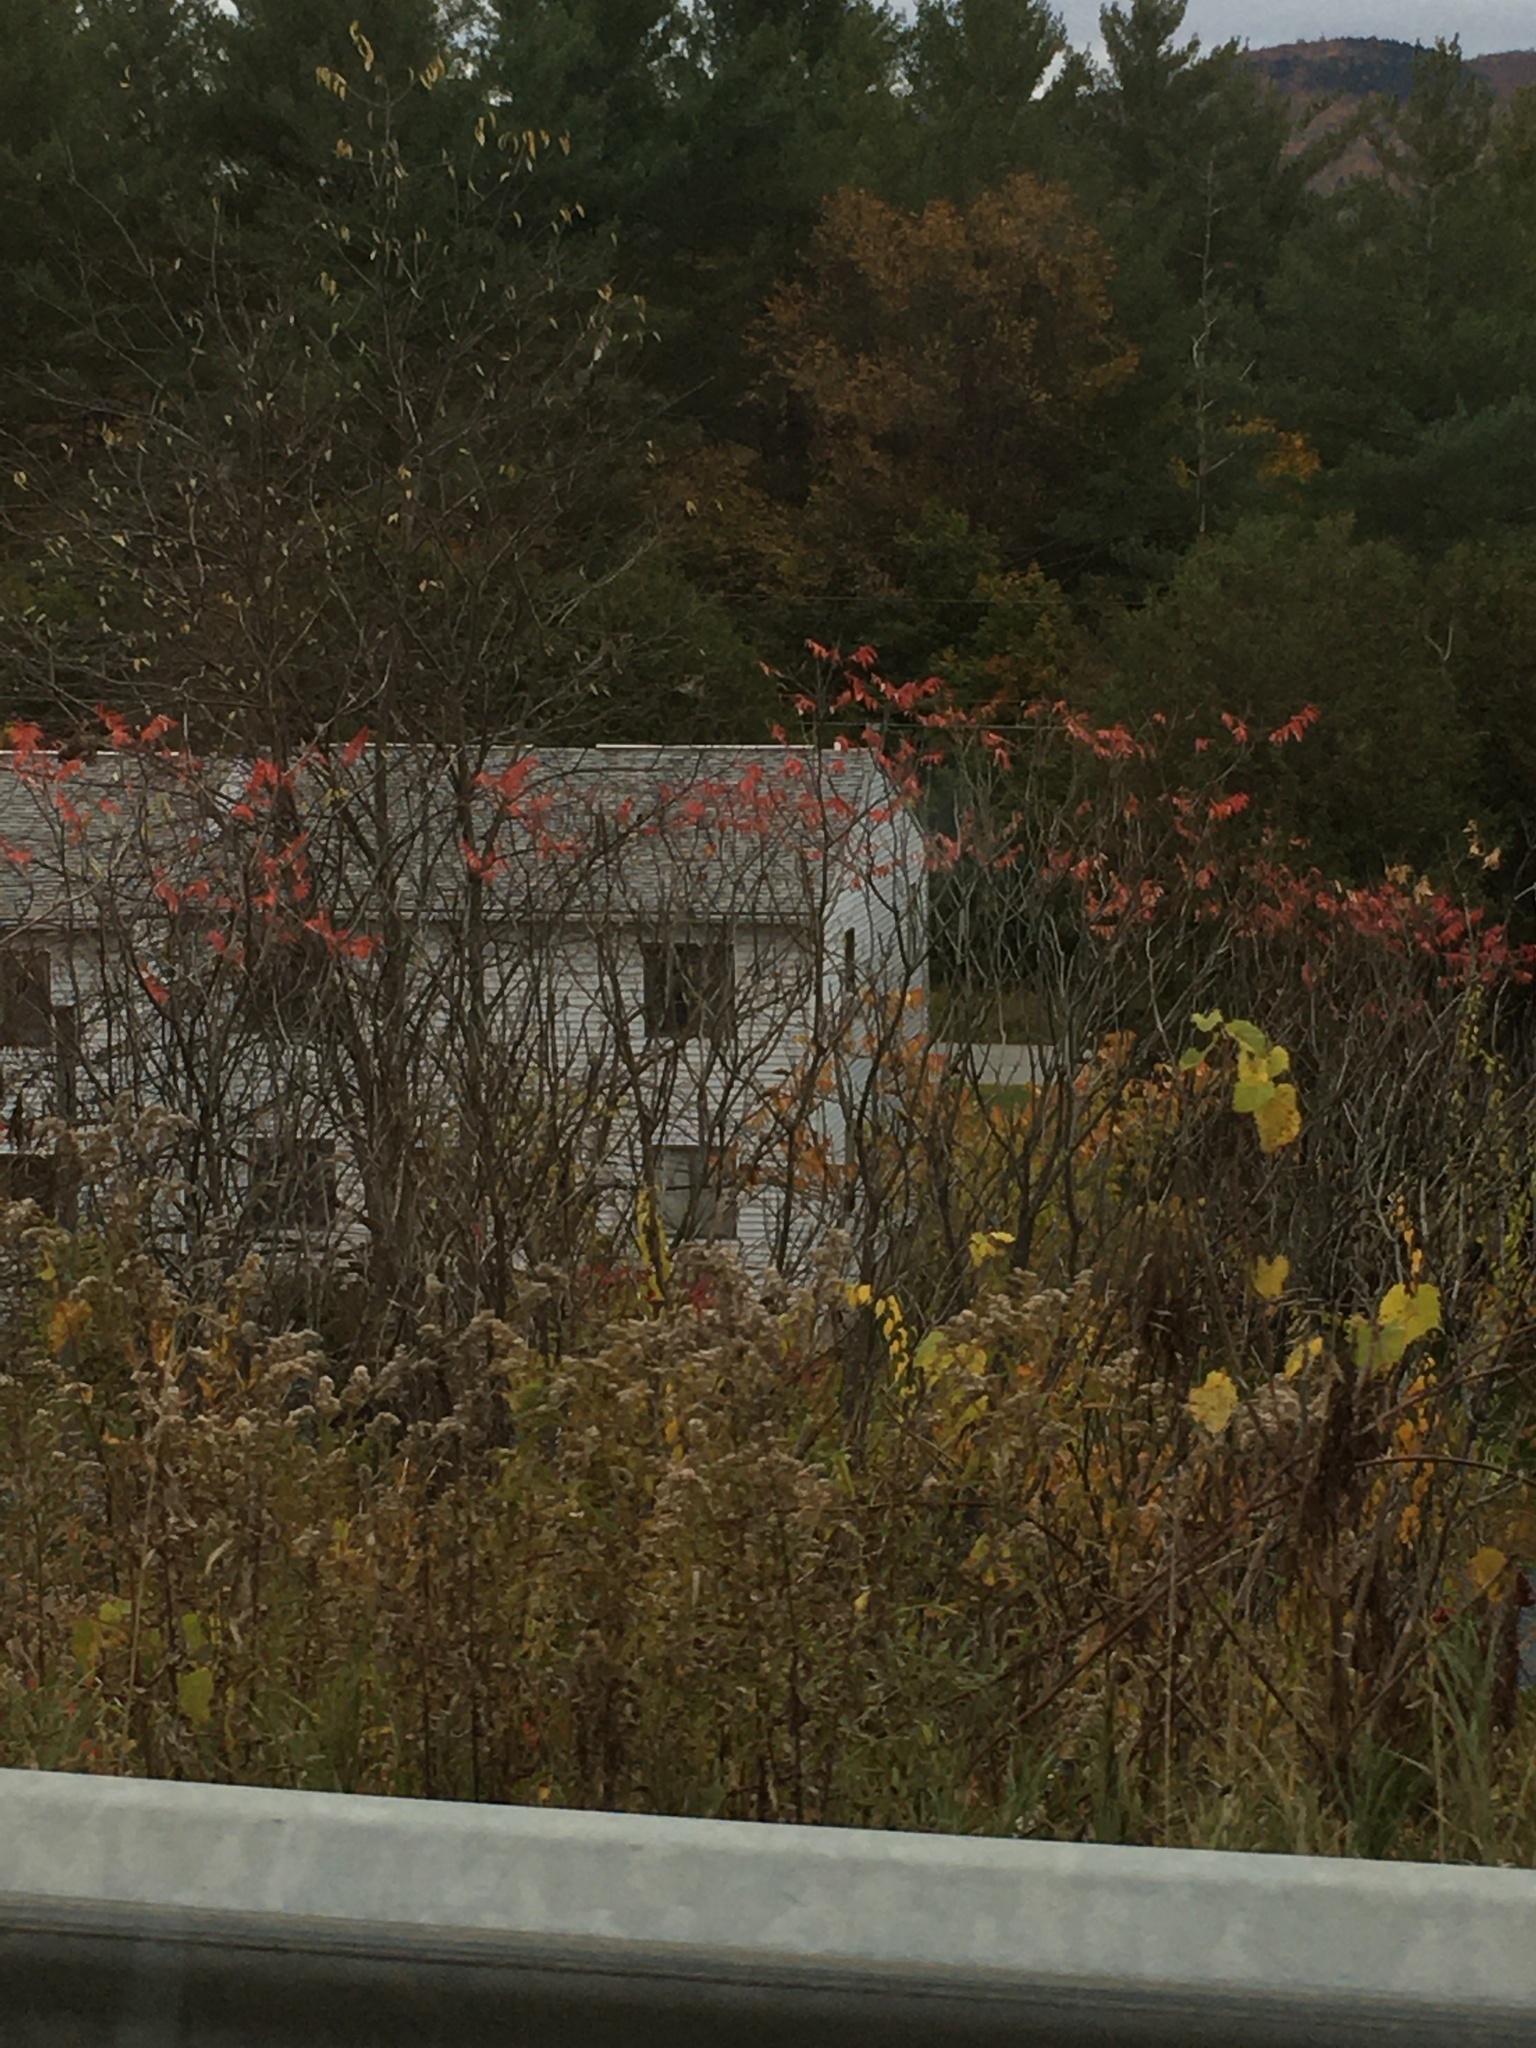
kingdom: Plantae
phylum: Tracheophyta
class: Magnoliopsida
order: Sapindales
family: Anacardiaceae
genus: Rhus
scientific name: Rhus typhina
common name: Staghorn sumac
